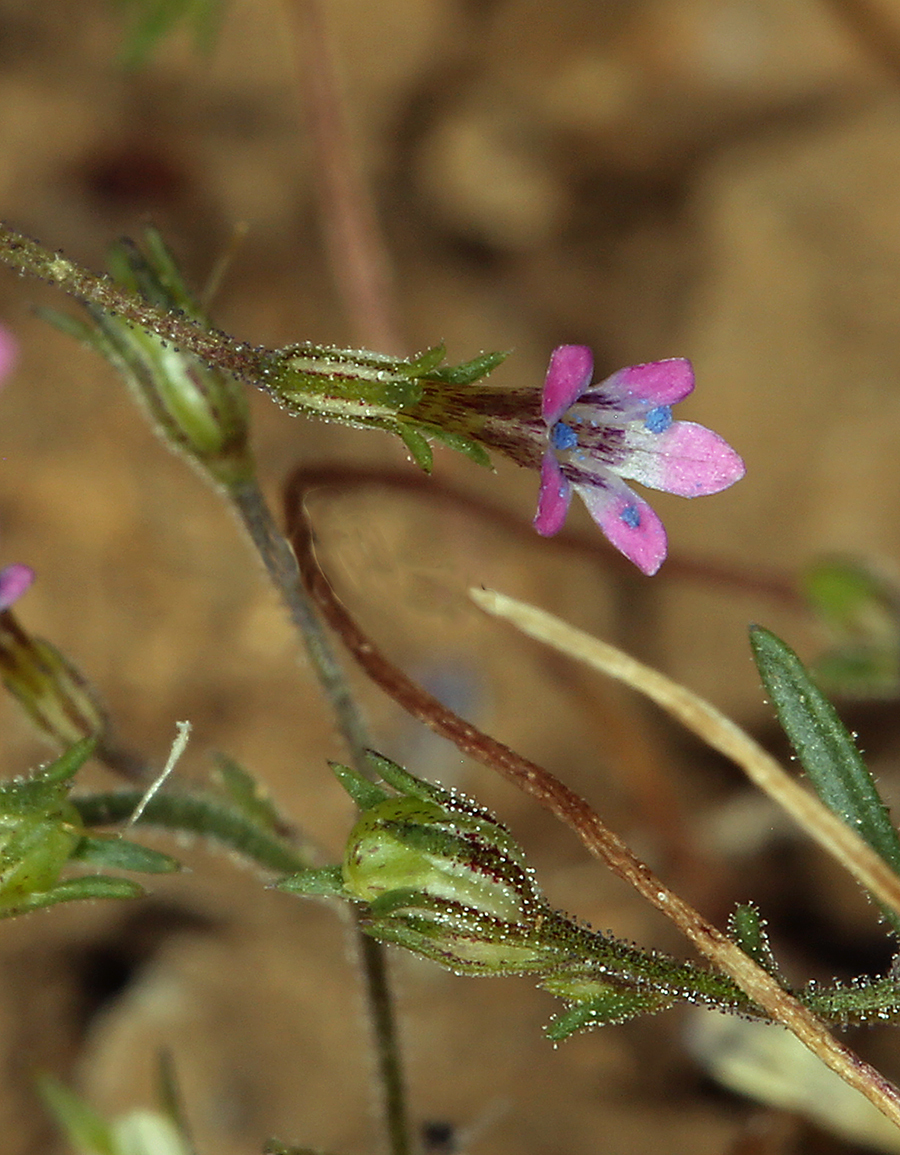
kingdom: Plantae
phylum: Tracheophyta
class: Magnoliopsida
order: Ericales
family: Polemoniaceae
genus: Navarretia
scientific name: Navarretia linearifolia
